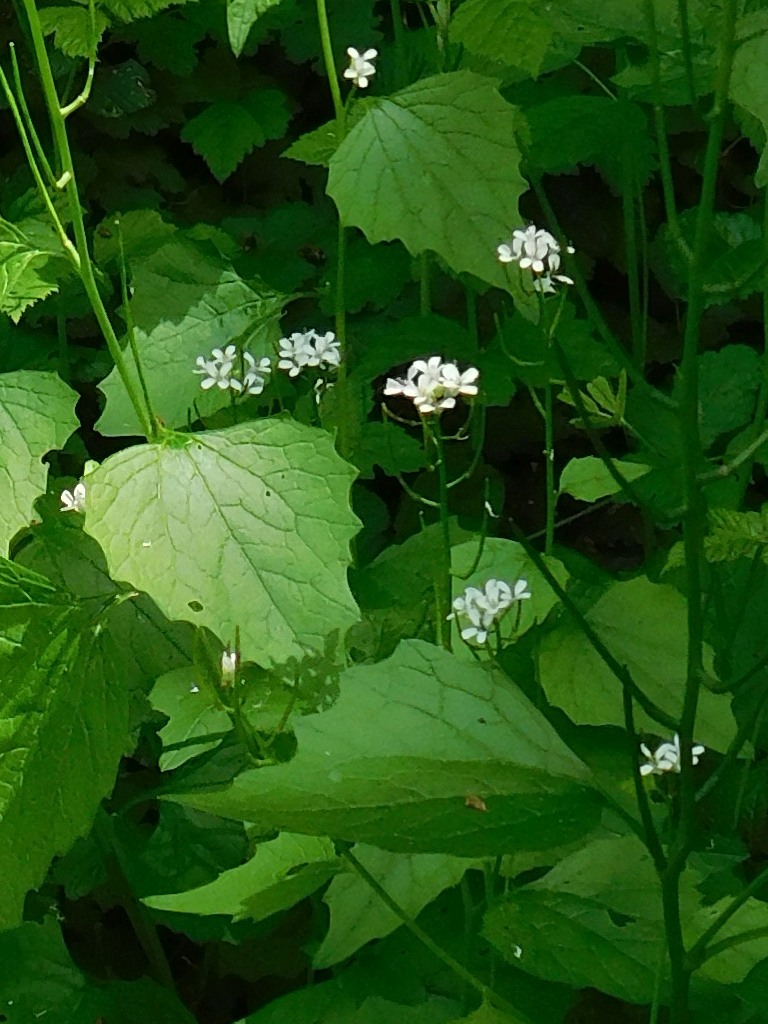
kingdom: Plantae
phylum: Tracheophyta
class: Magnoliopsida
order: Brassicales
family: Brassicaceae
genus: Alliaria
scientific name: Alliaria petiolata
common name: Garlic mustard
